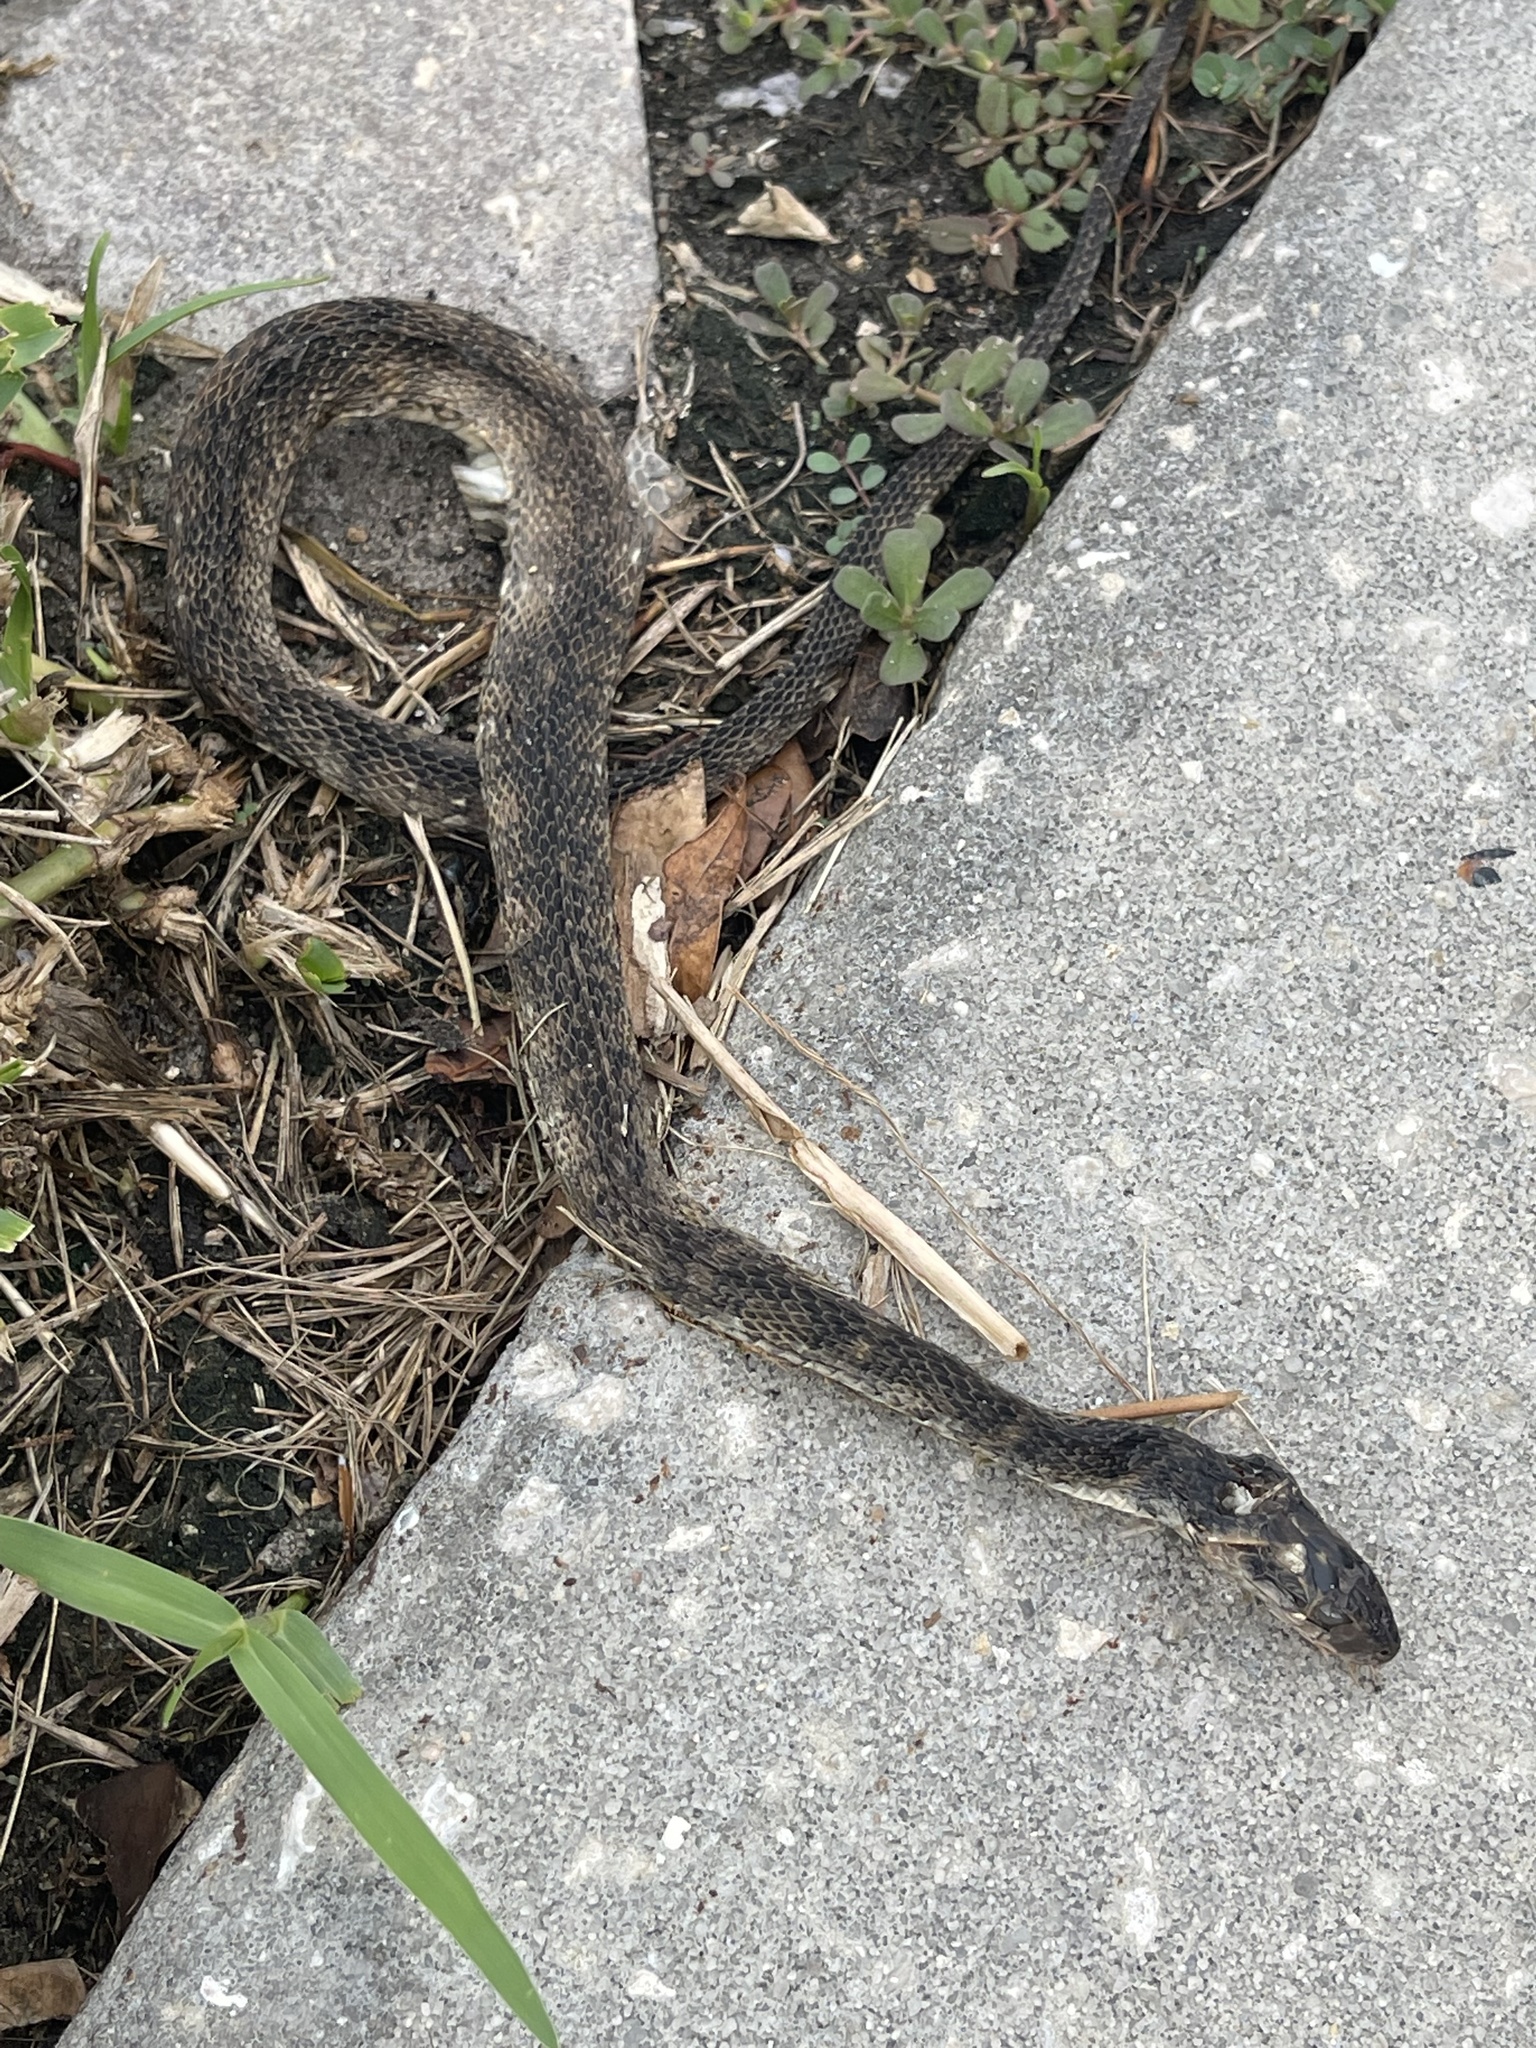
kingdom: Animalia
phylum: Chordata
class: Squamata
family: Colubridae
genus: Nerodia
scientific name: Nerodia fasciata
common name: Southern water snake
